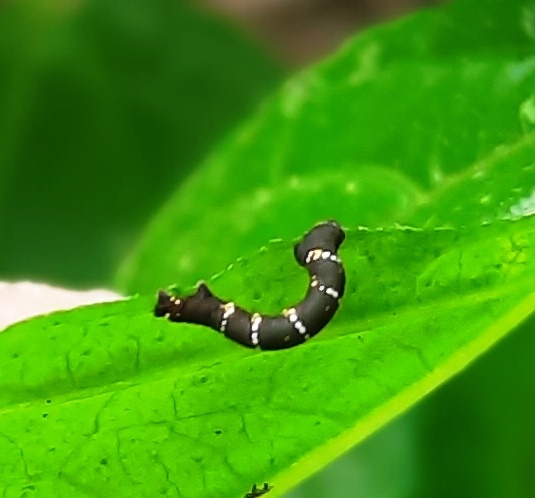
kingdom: Animalia
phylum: Arthropoda
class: Insecta
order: Lepidoptera
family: Geometridae
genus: Hyposidra
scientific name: Hyposidra talaca
